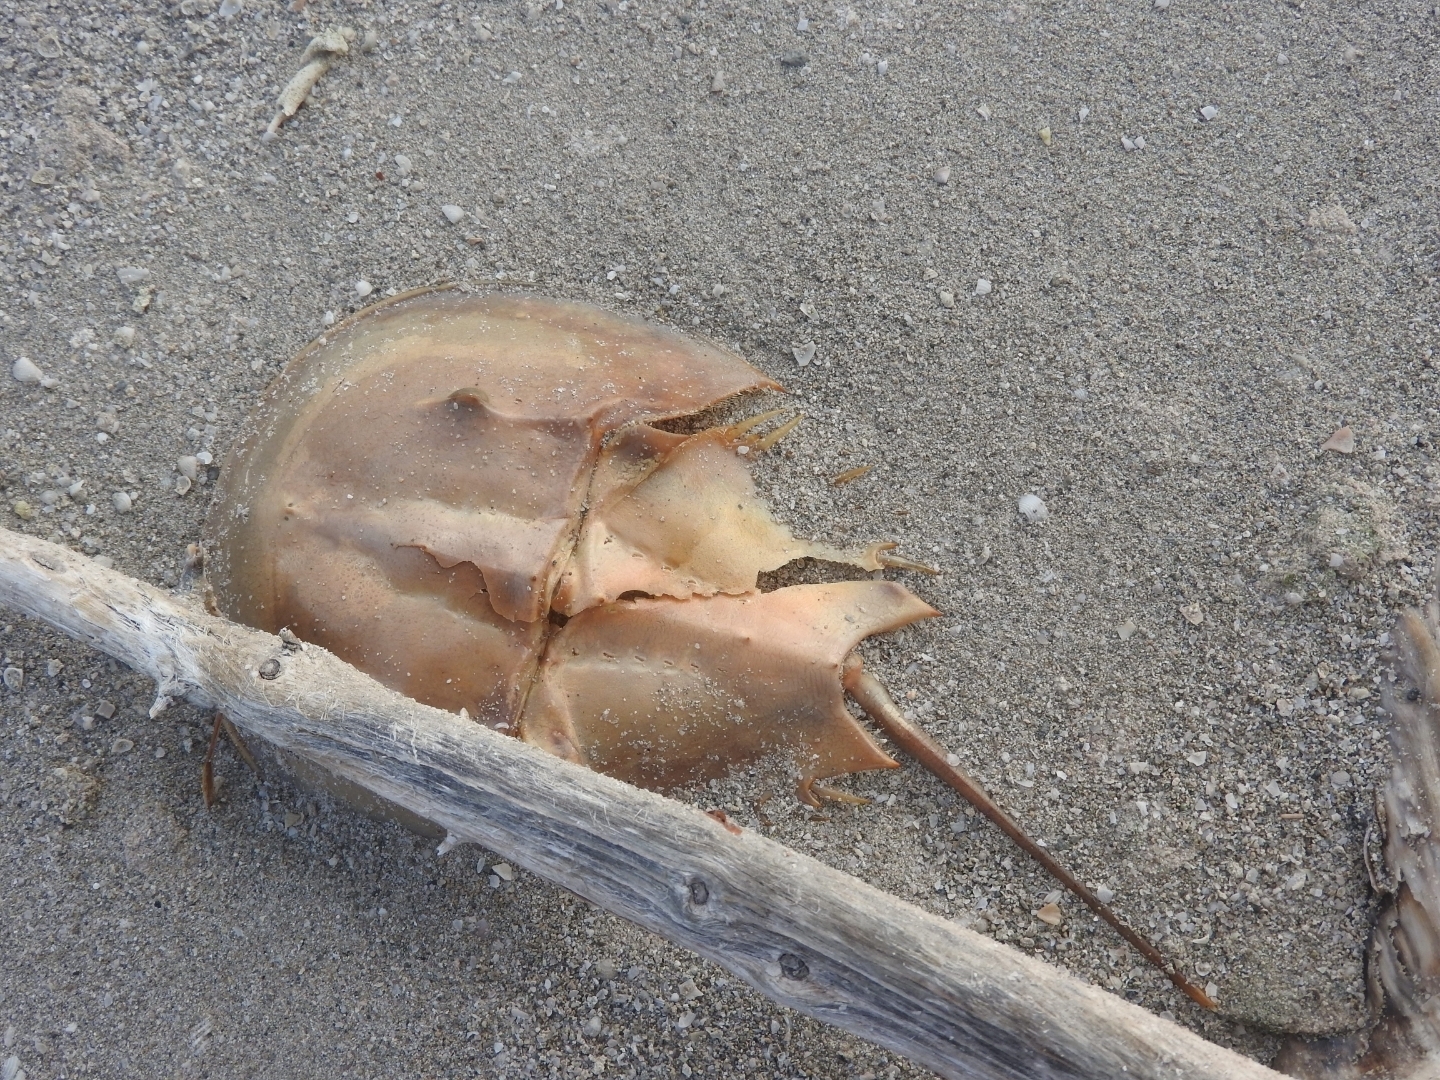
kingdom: Animalia
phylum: Arthropoda
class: Merostomata
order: Xiphosurida
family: Limulidae
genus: Limulus
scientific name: Limulus polyphemus
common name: Horseshoe crab
